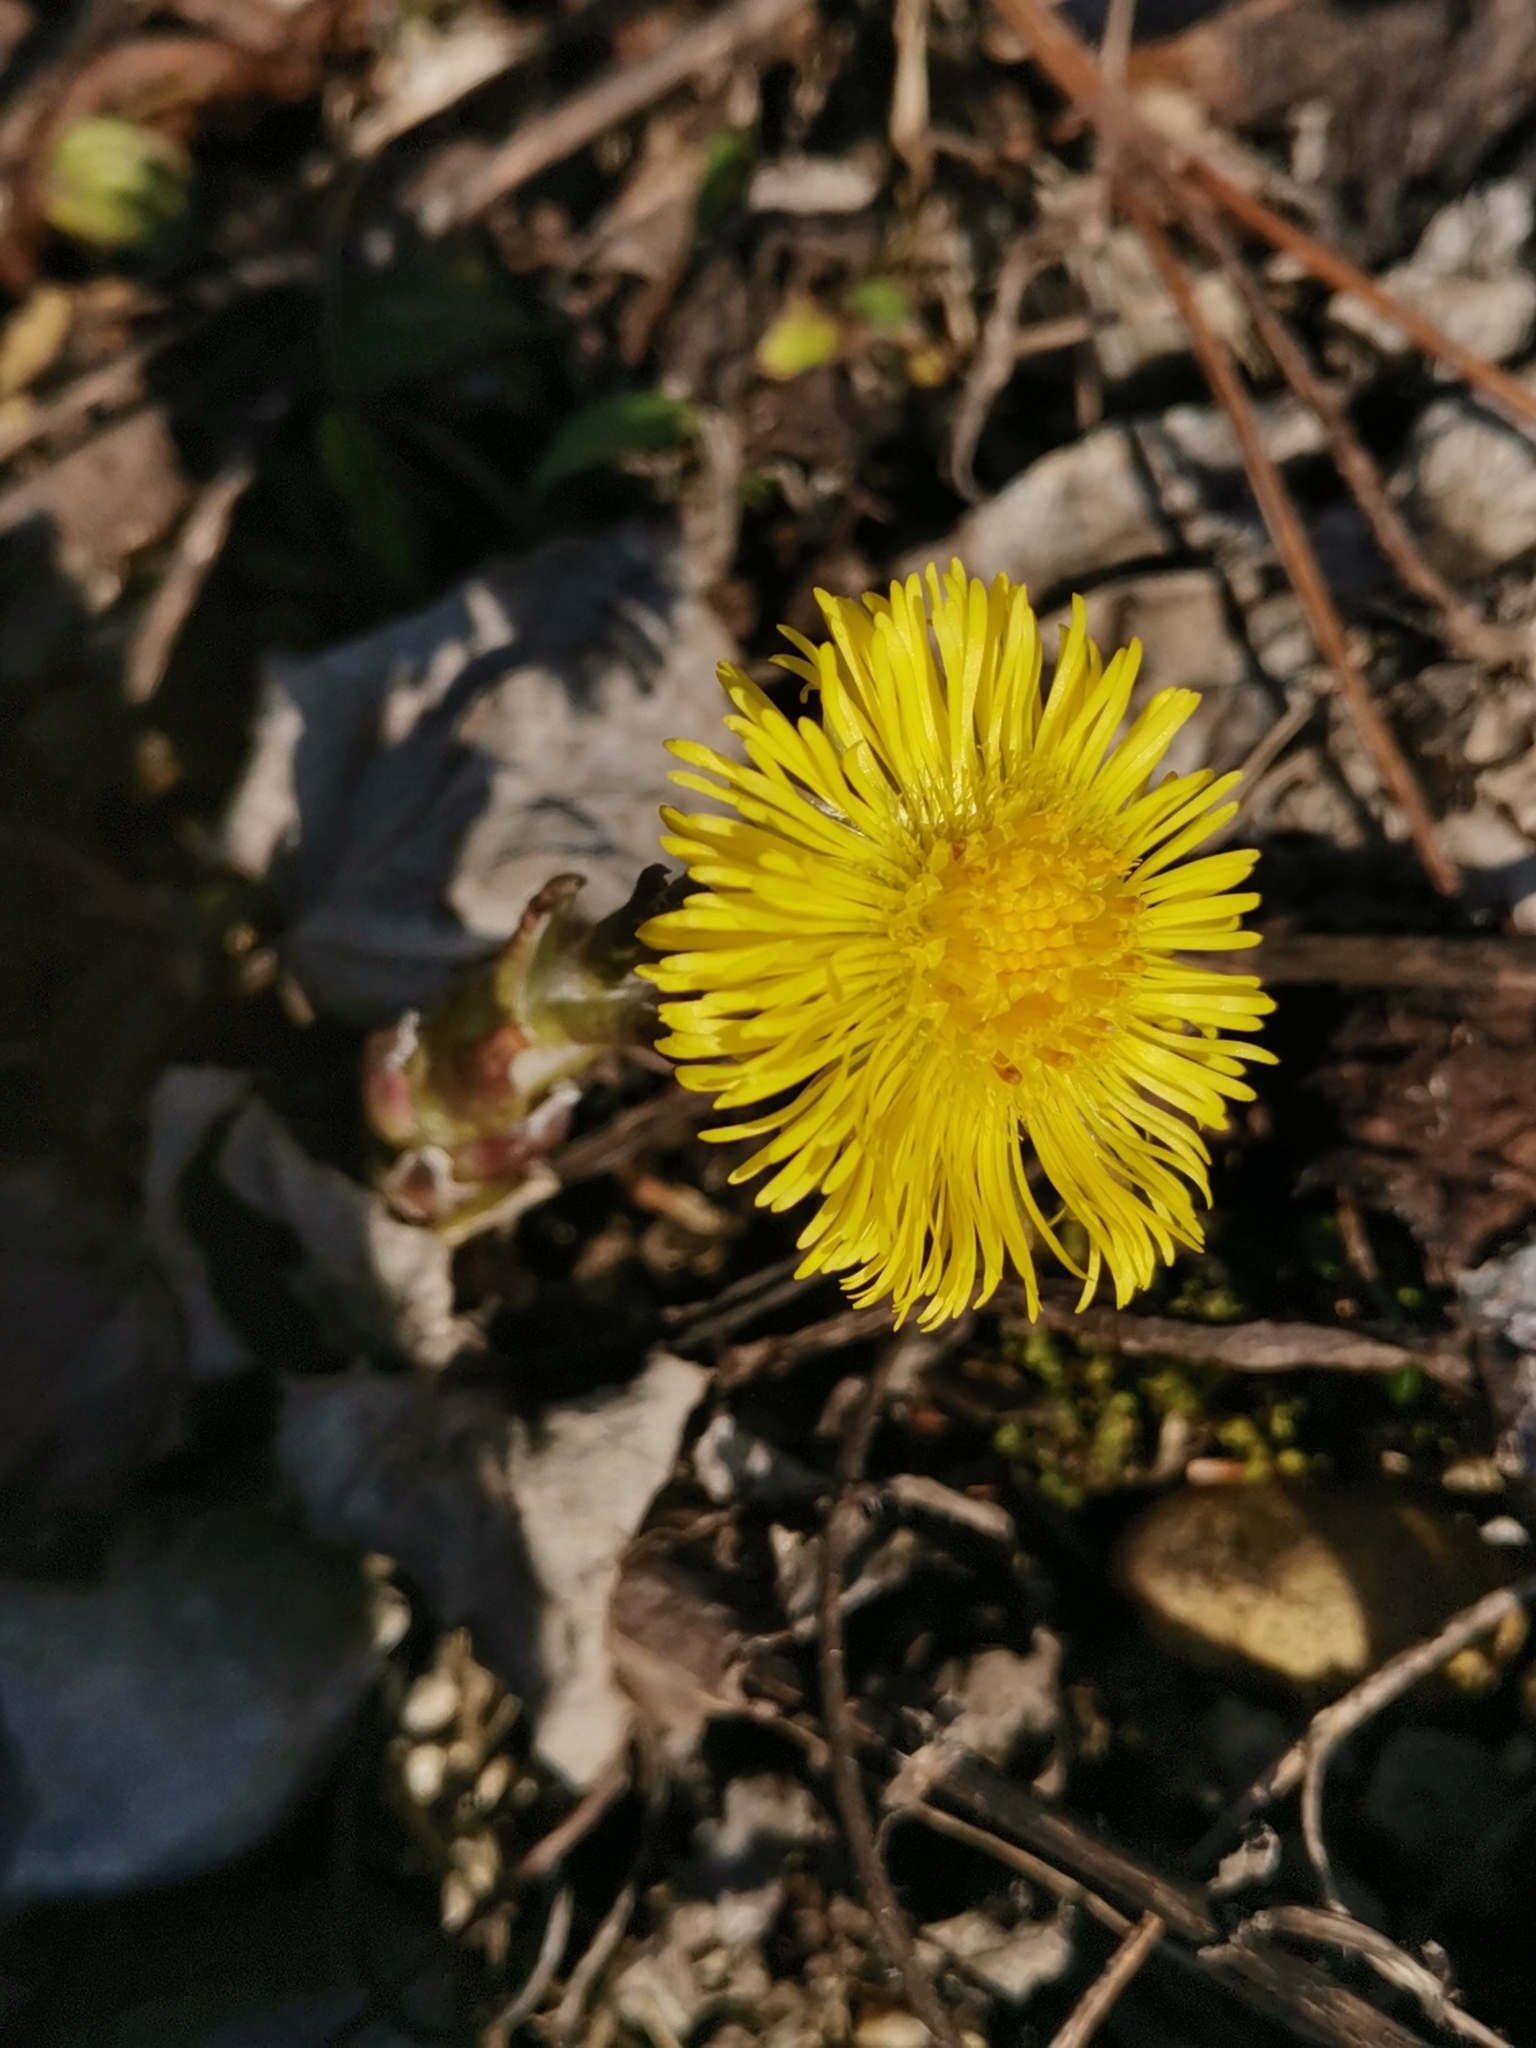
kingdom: Plantae
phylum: Tracheophyta
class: Magnoliopsida
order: Asterales
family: Asteraceae
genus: Tussilago
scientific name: Tussilago farfara
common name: Coltsfoot
